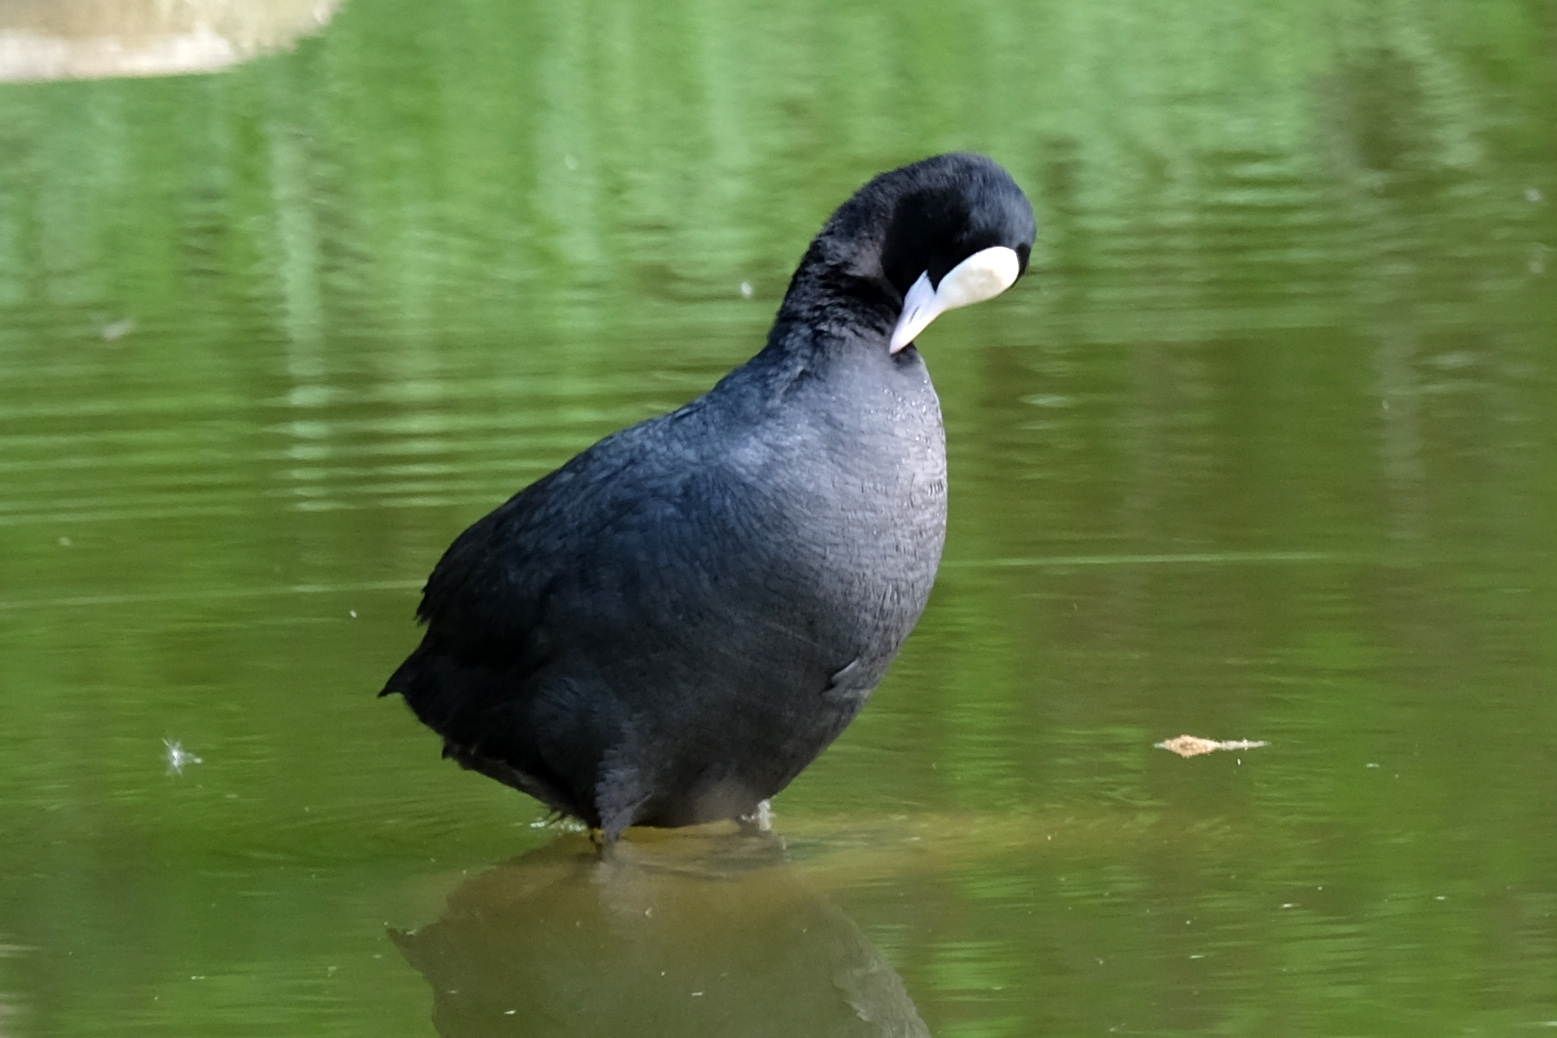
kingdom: Animalia
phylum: Chordata
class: Aves
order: Gruiformes
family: Rallidae
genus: Fulica
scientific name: Fulica atra
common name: Eurasian coot
